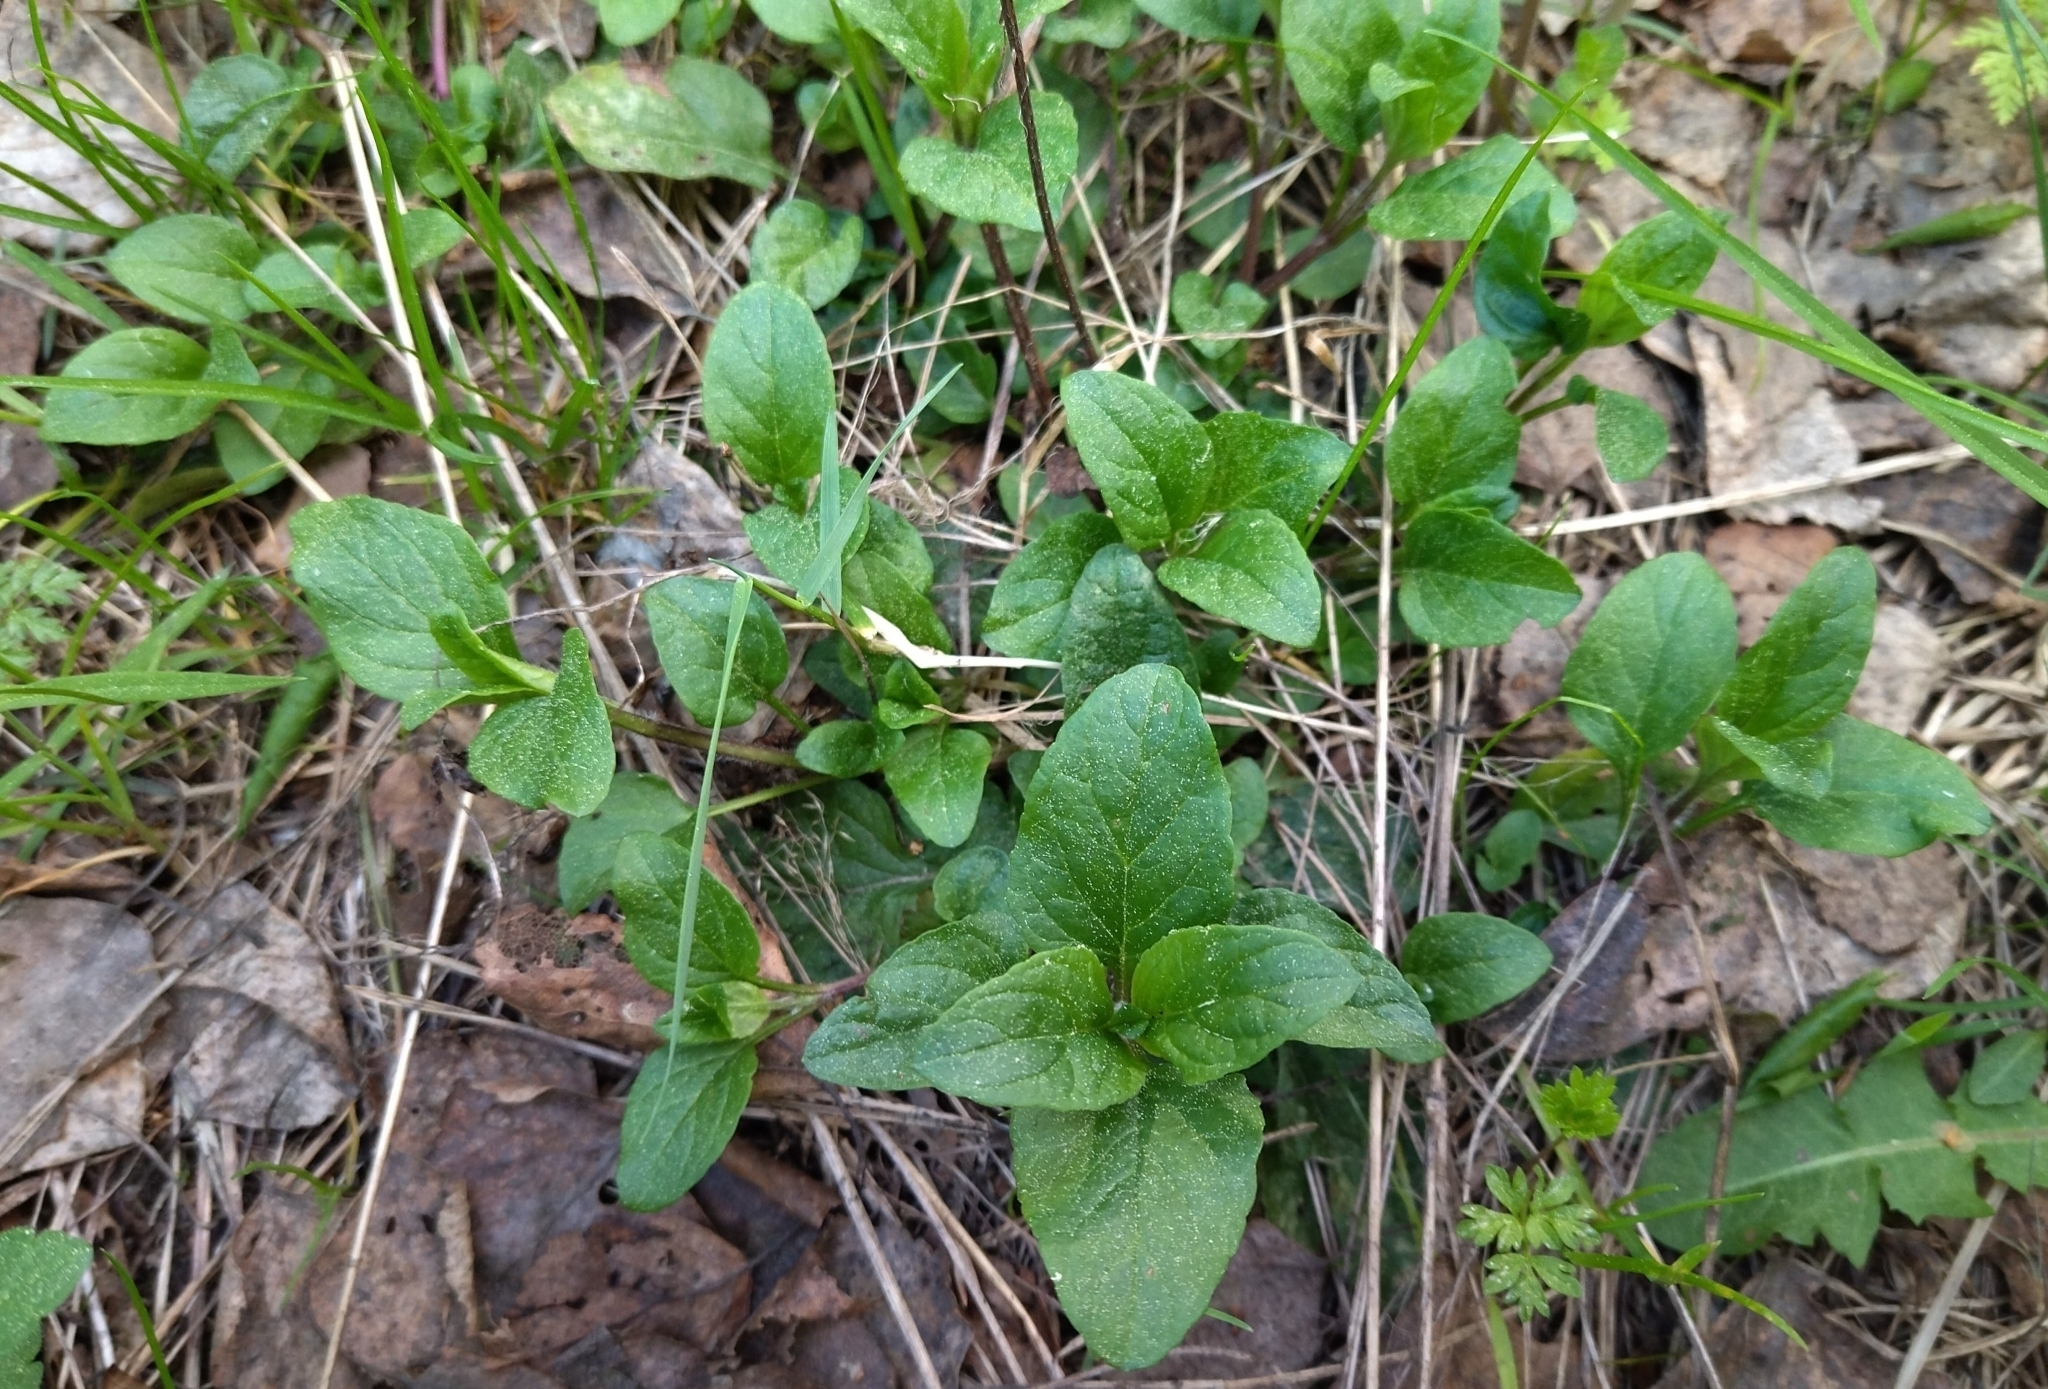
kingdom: Plantae
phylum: Tracheophyta
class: Magnoliopsida
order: Lamiales
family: Lamiaceae
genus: Prunella
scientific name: Prunella vulgaris
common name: Heal-all
